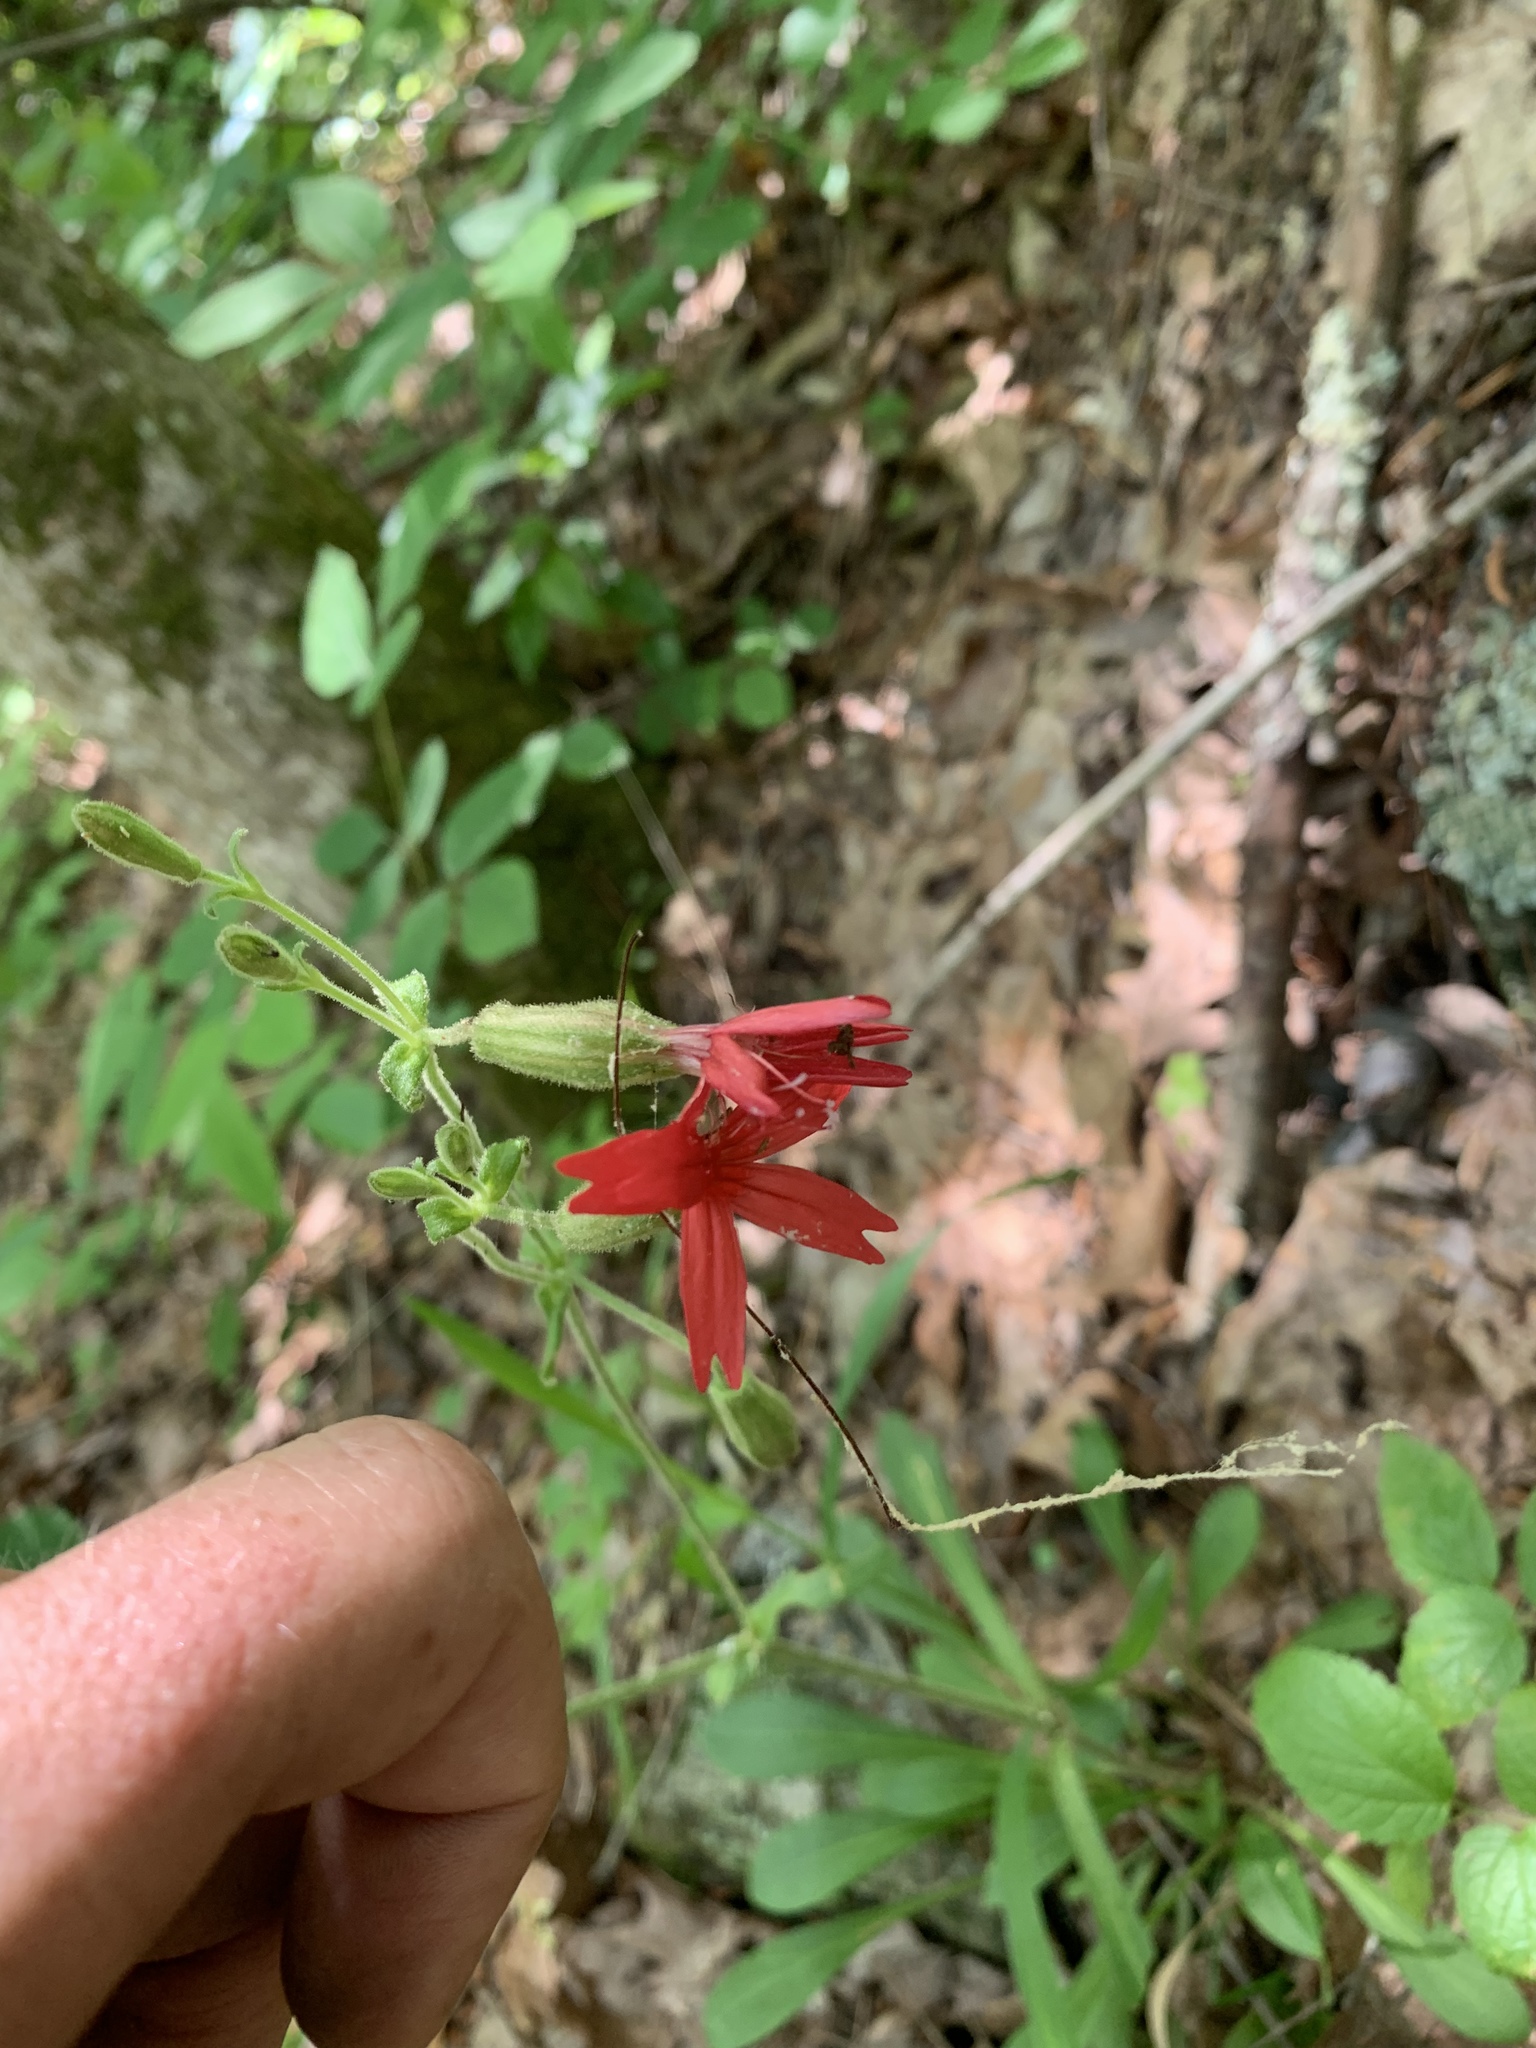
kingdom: Plantae
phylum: Tracheophyta
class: Magnoliopsida
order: Caryophyllales
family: Caryophyllaceae
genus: Silene
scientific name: Silene virginica
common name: Fire-pink
